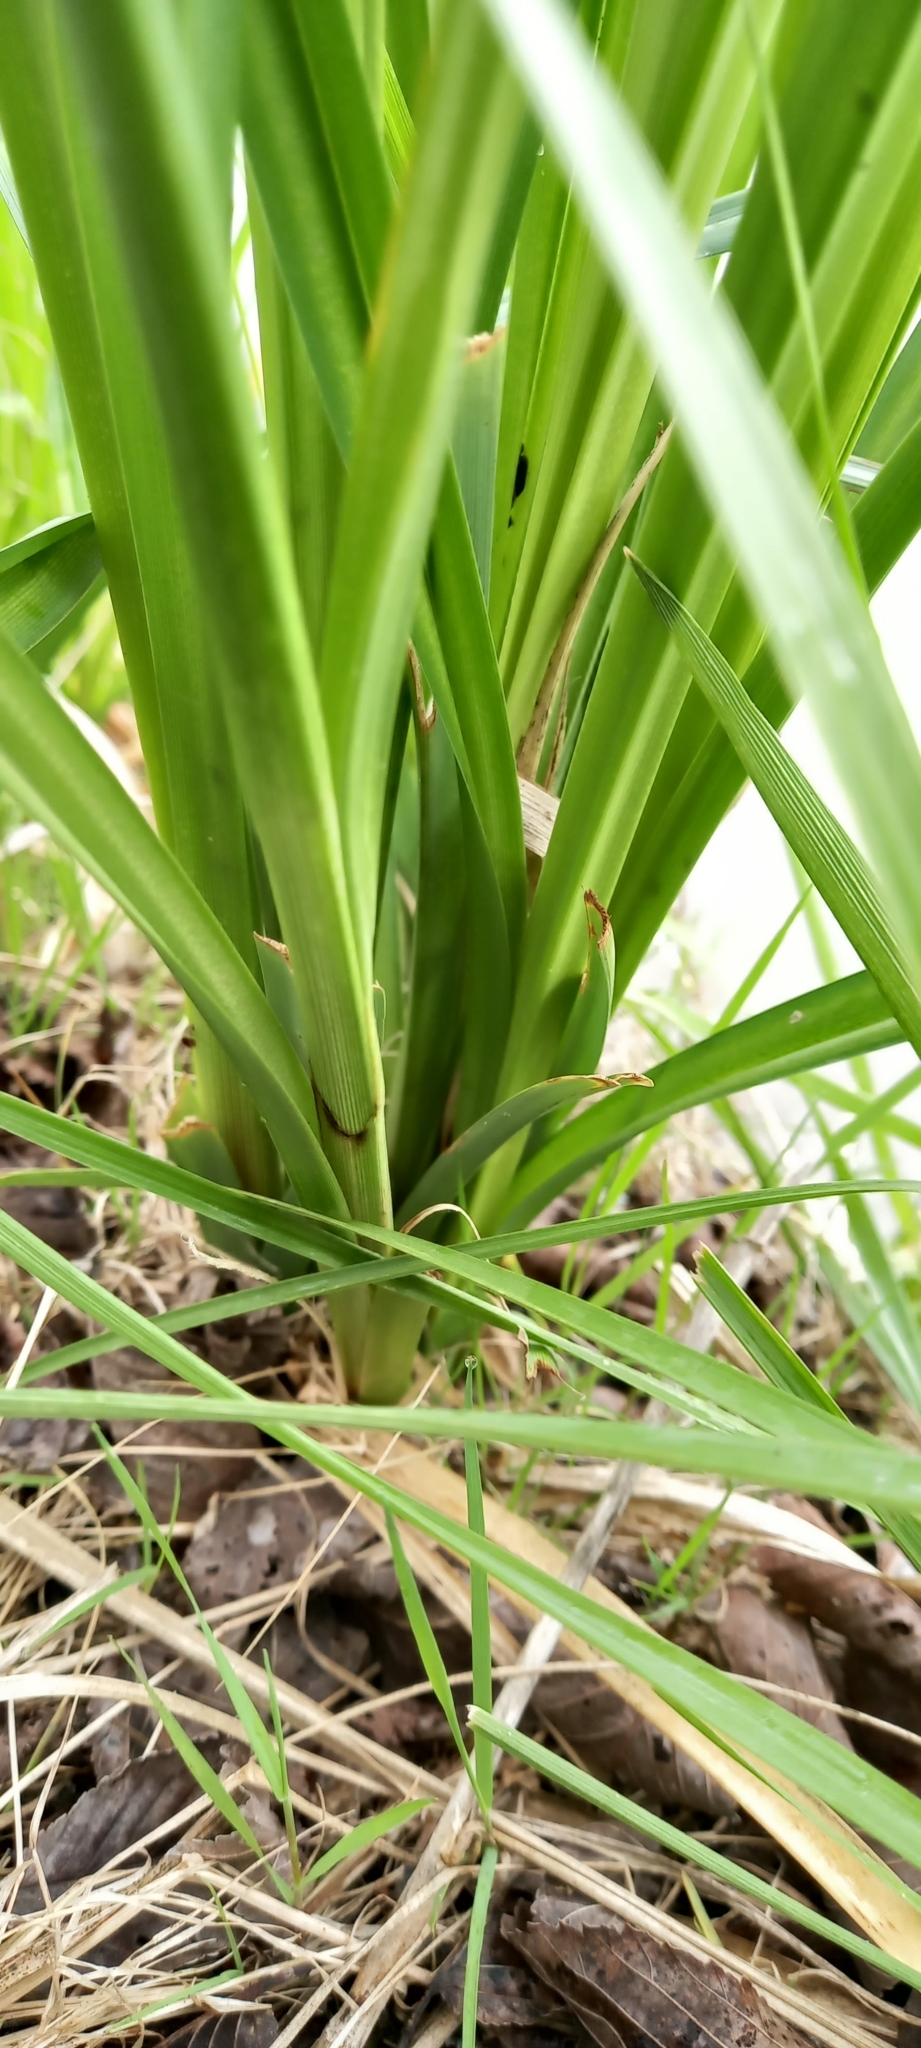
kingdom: Plantae
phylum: Tracheophyta
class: Liliopsida
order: Poales
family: Cyperaceae
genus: Carex
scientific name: Carex riparia
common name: Greater pond-sedge
